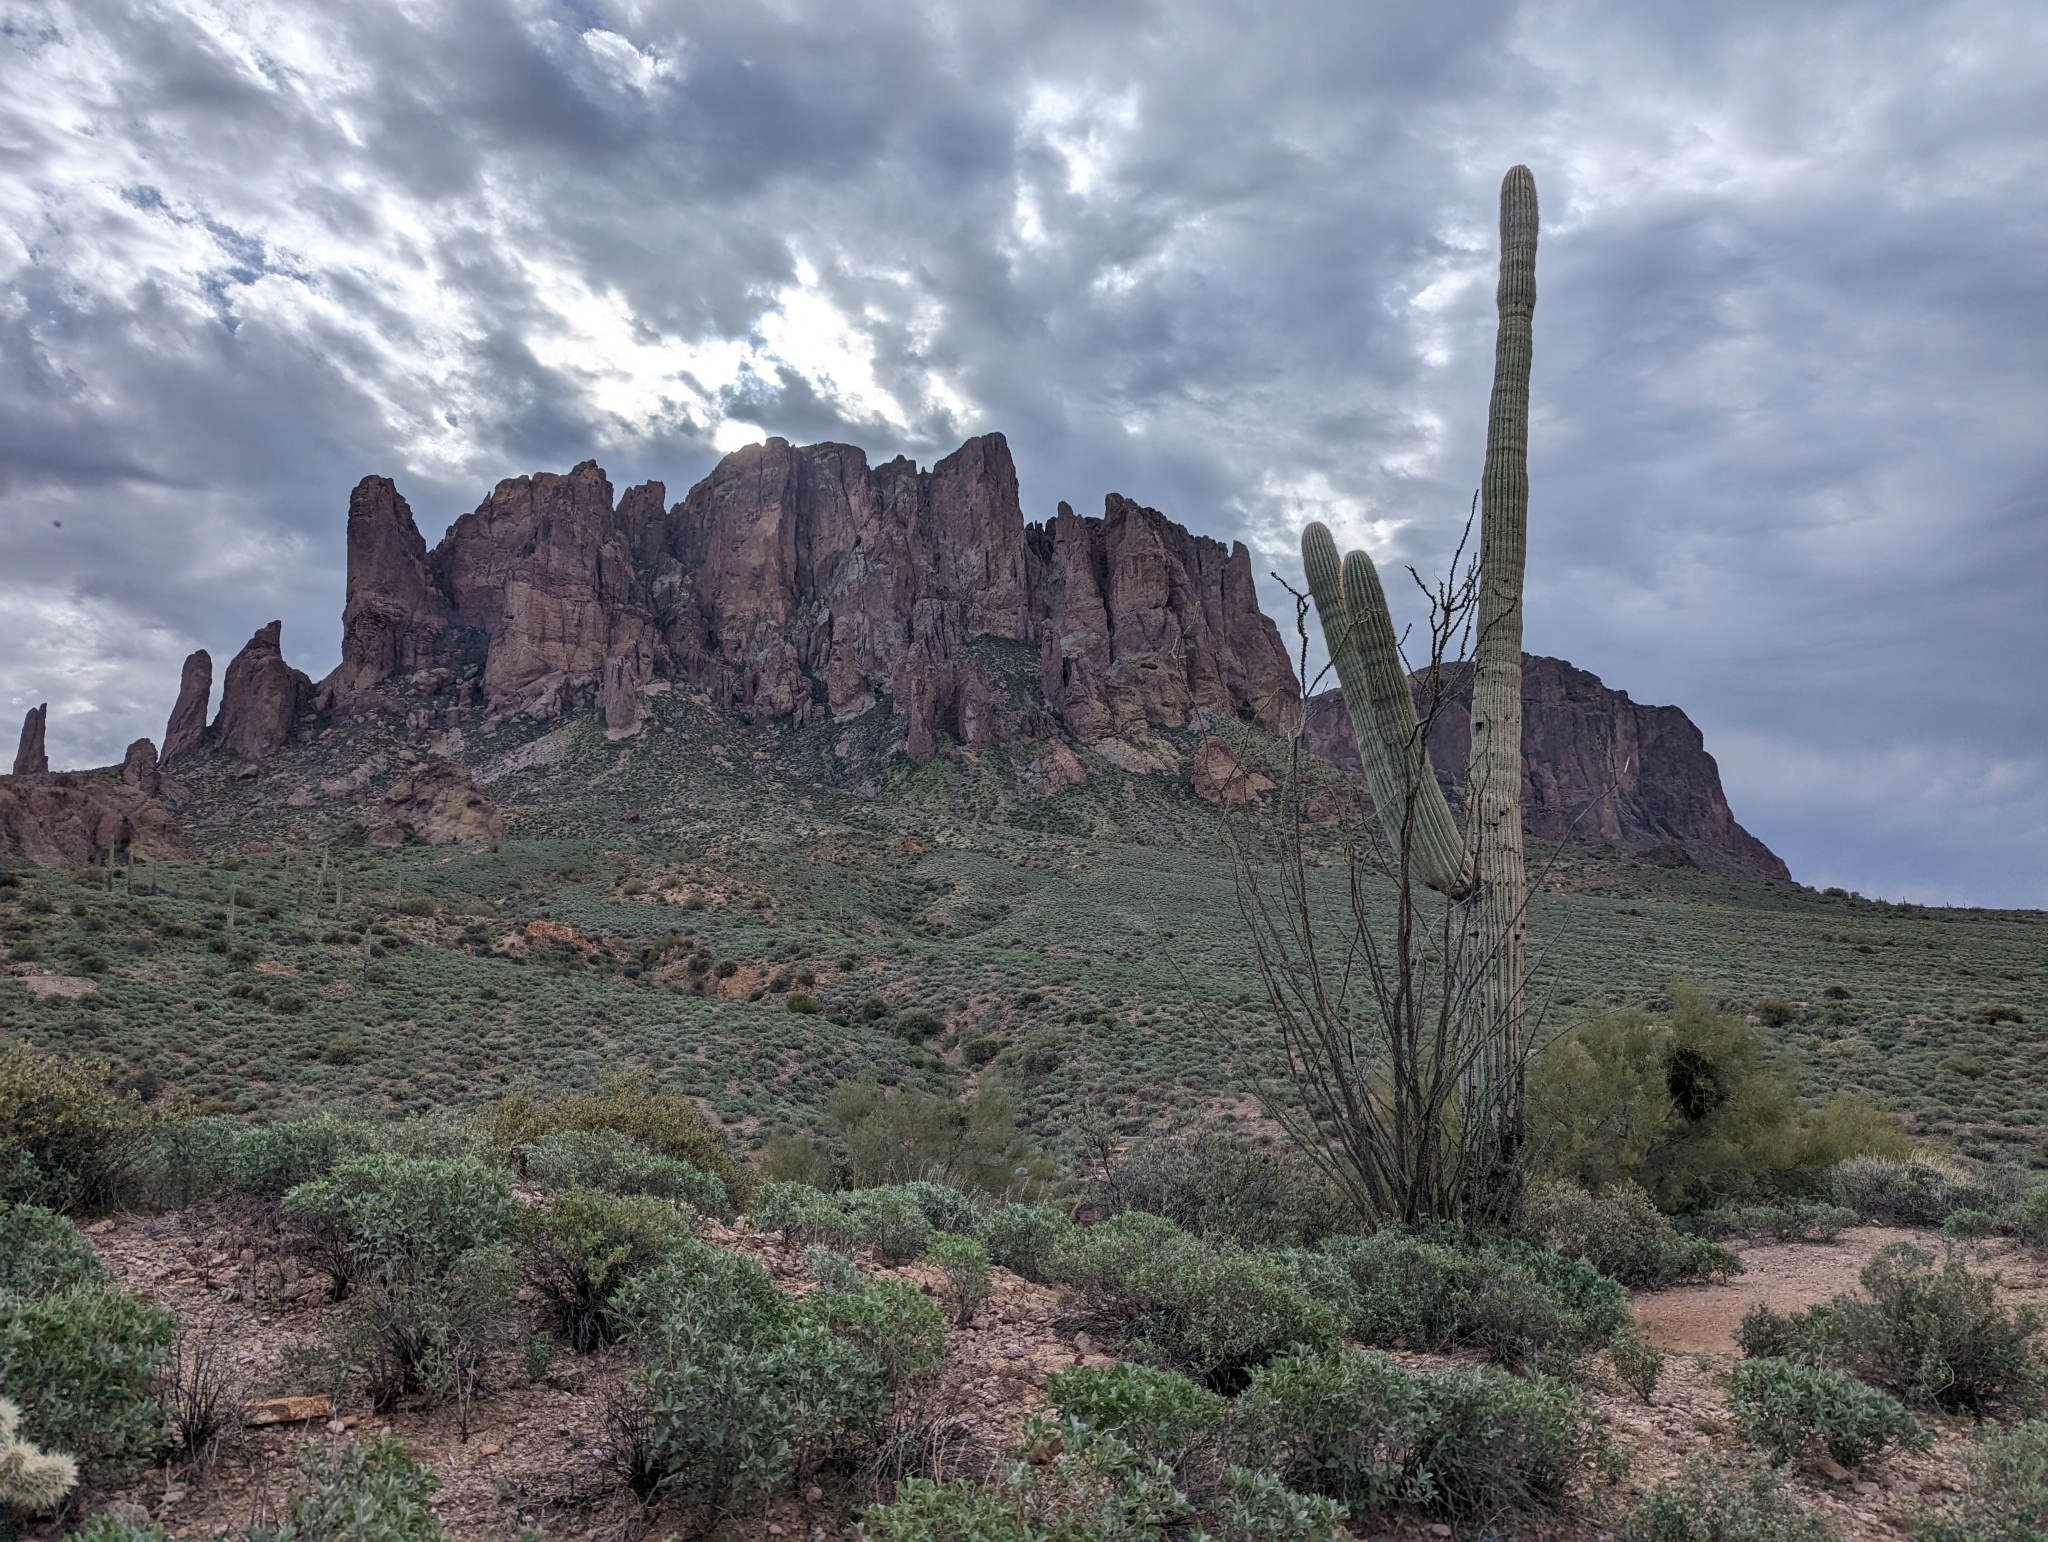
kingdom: Plantae
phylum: Tracheophyta
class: Magnoliopsida
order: Ericales
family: Fouquieriaceae
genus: Fouquieria
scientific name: Fouquieria splendens
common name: Vine-cactus
